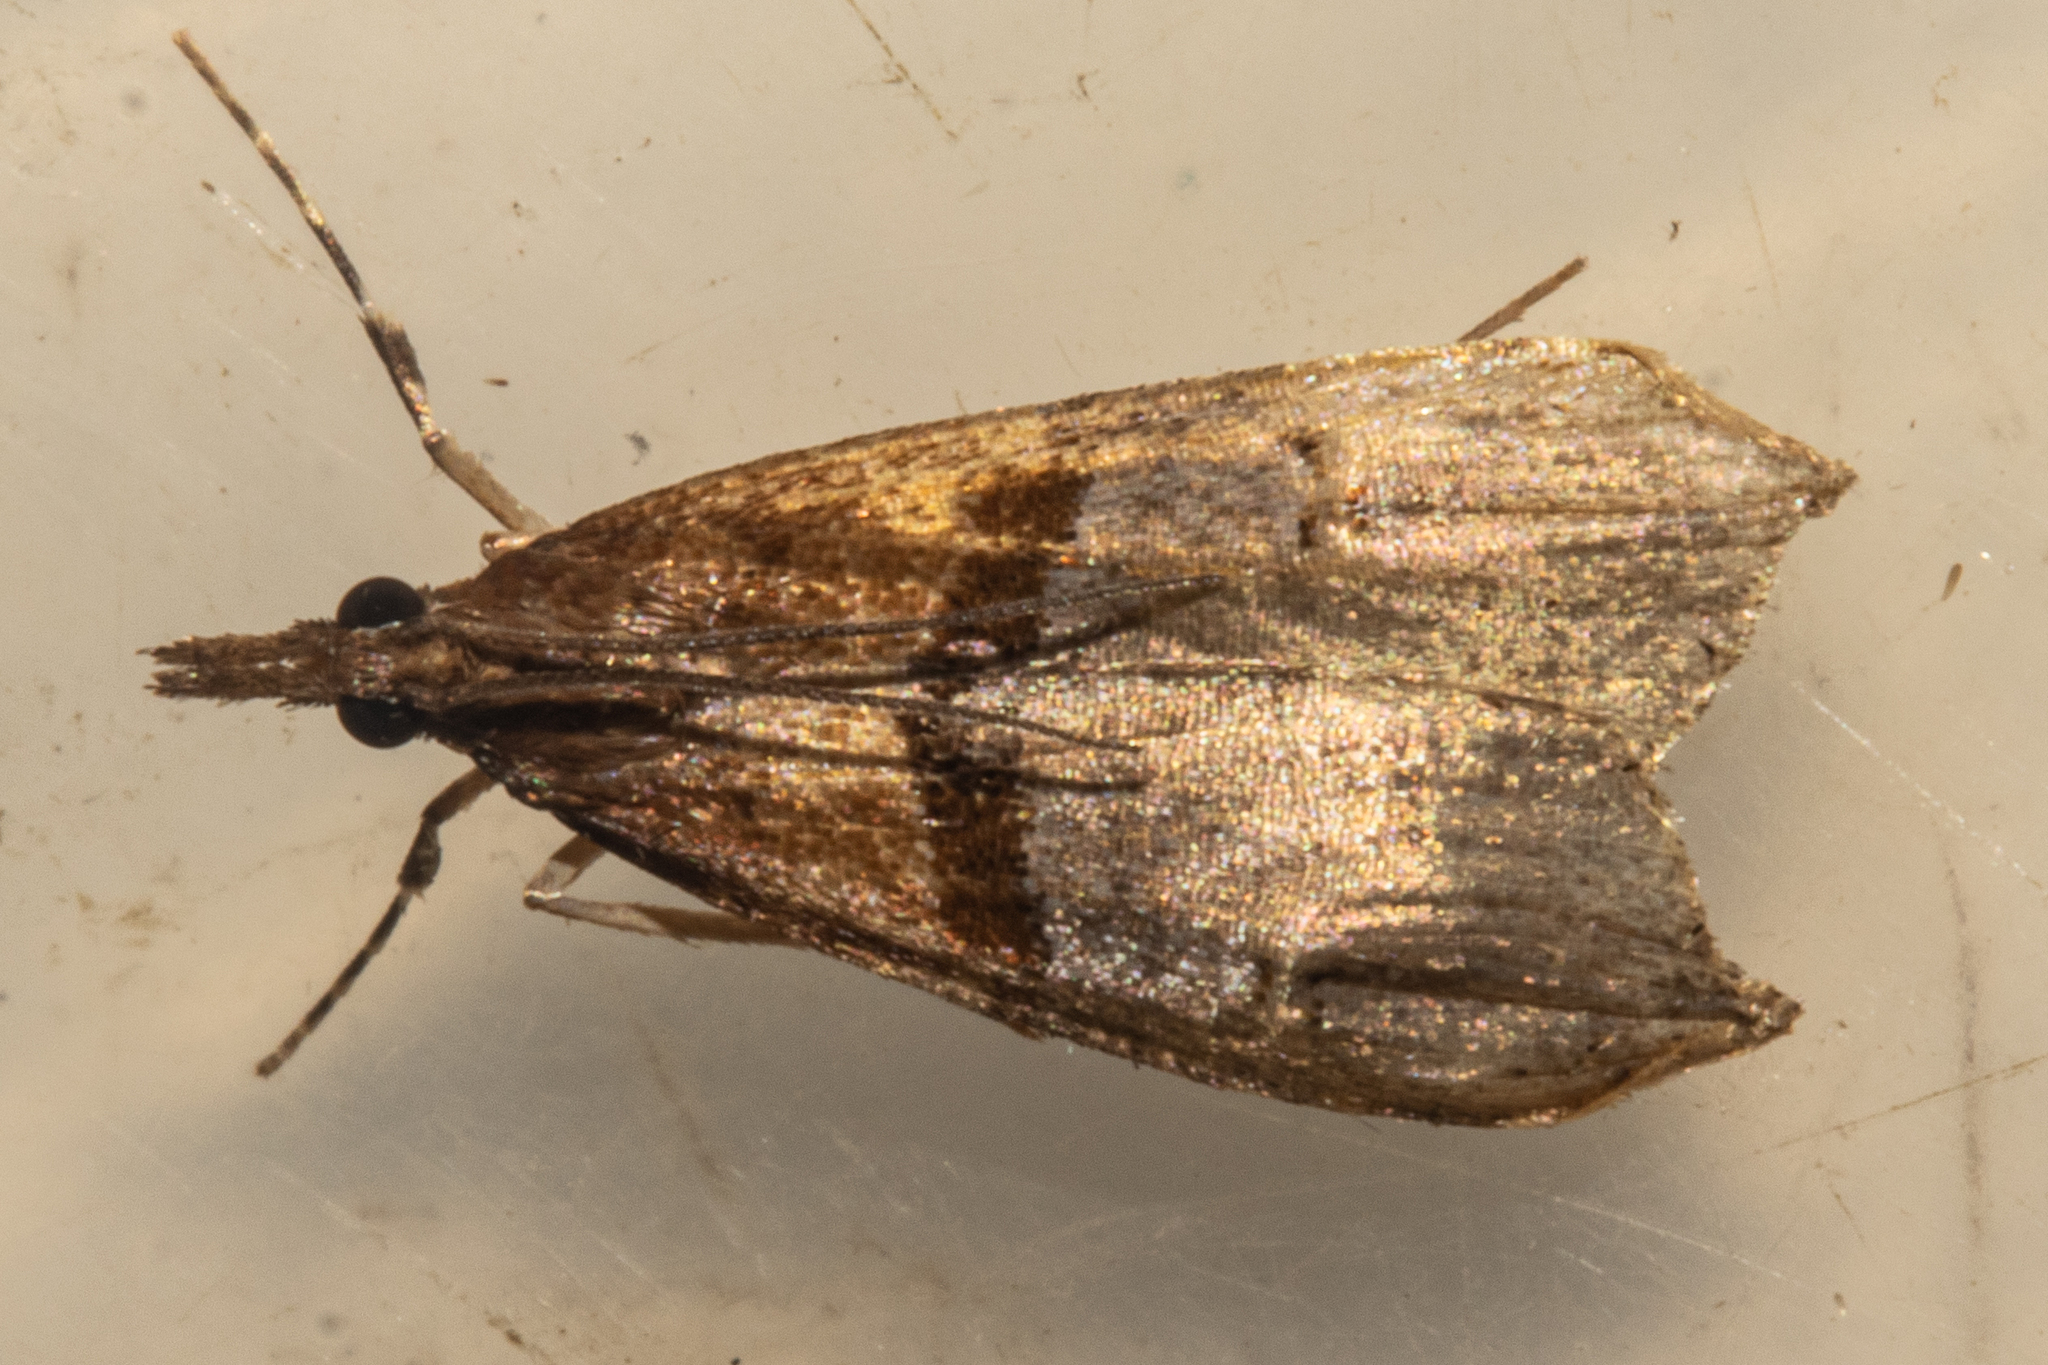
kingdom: Animalia
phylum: Arthropoda
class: Insecta
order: Lepidoptera
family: Crambidae
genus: Antiscopa
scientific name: Antiscopa epicomia
